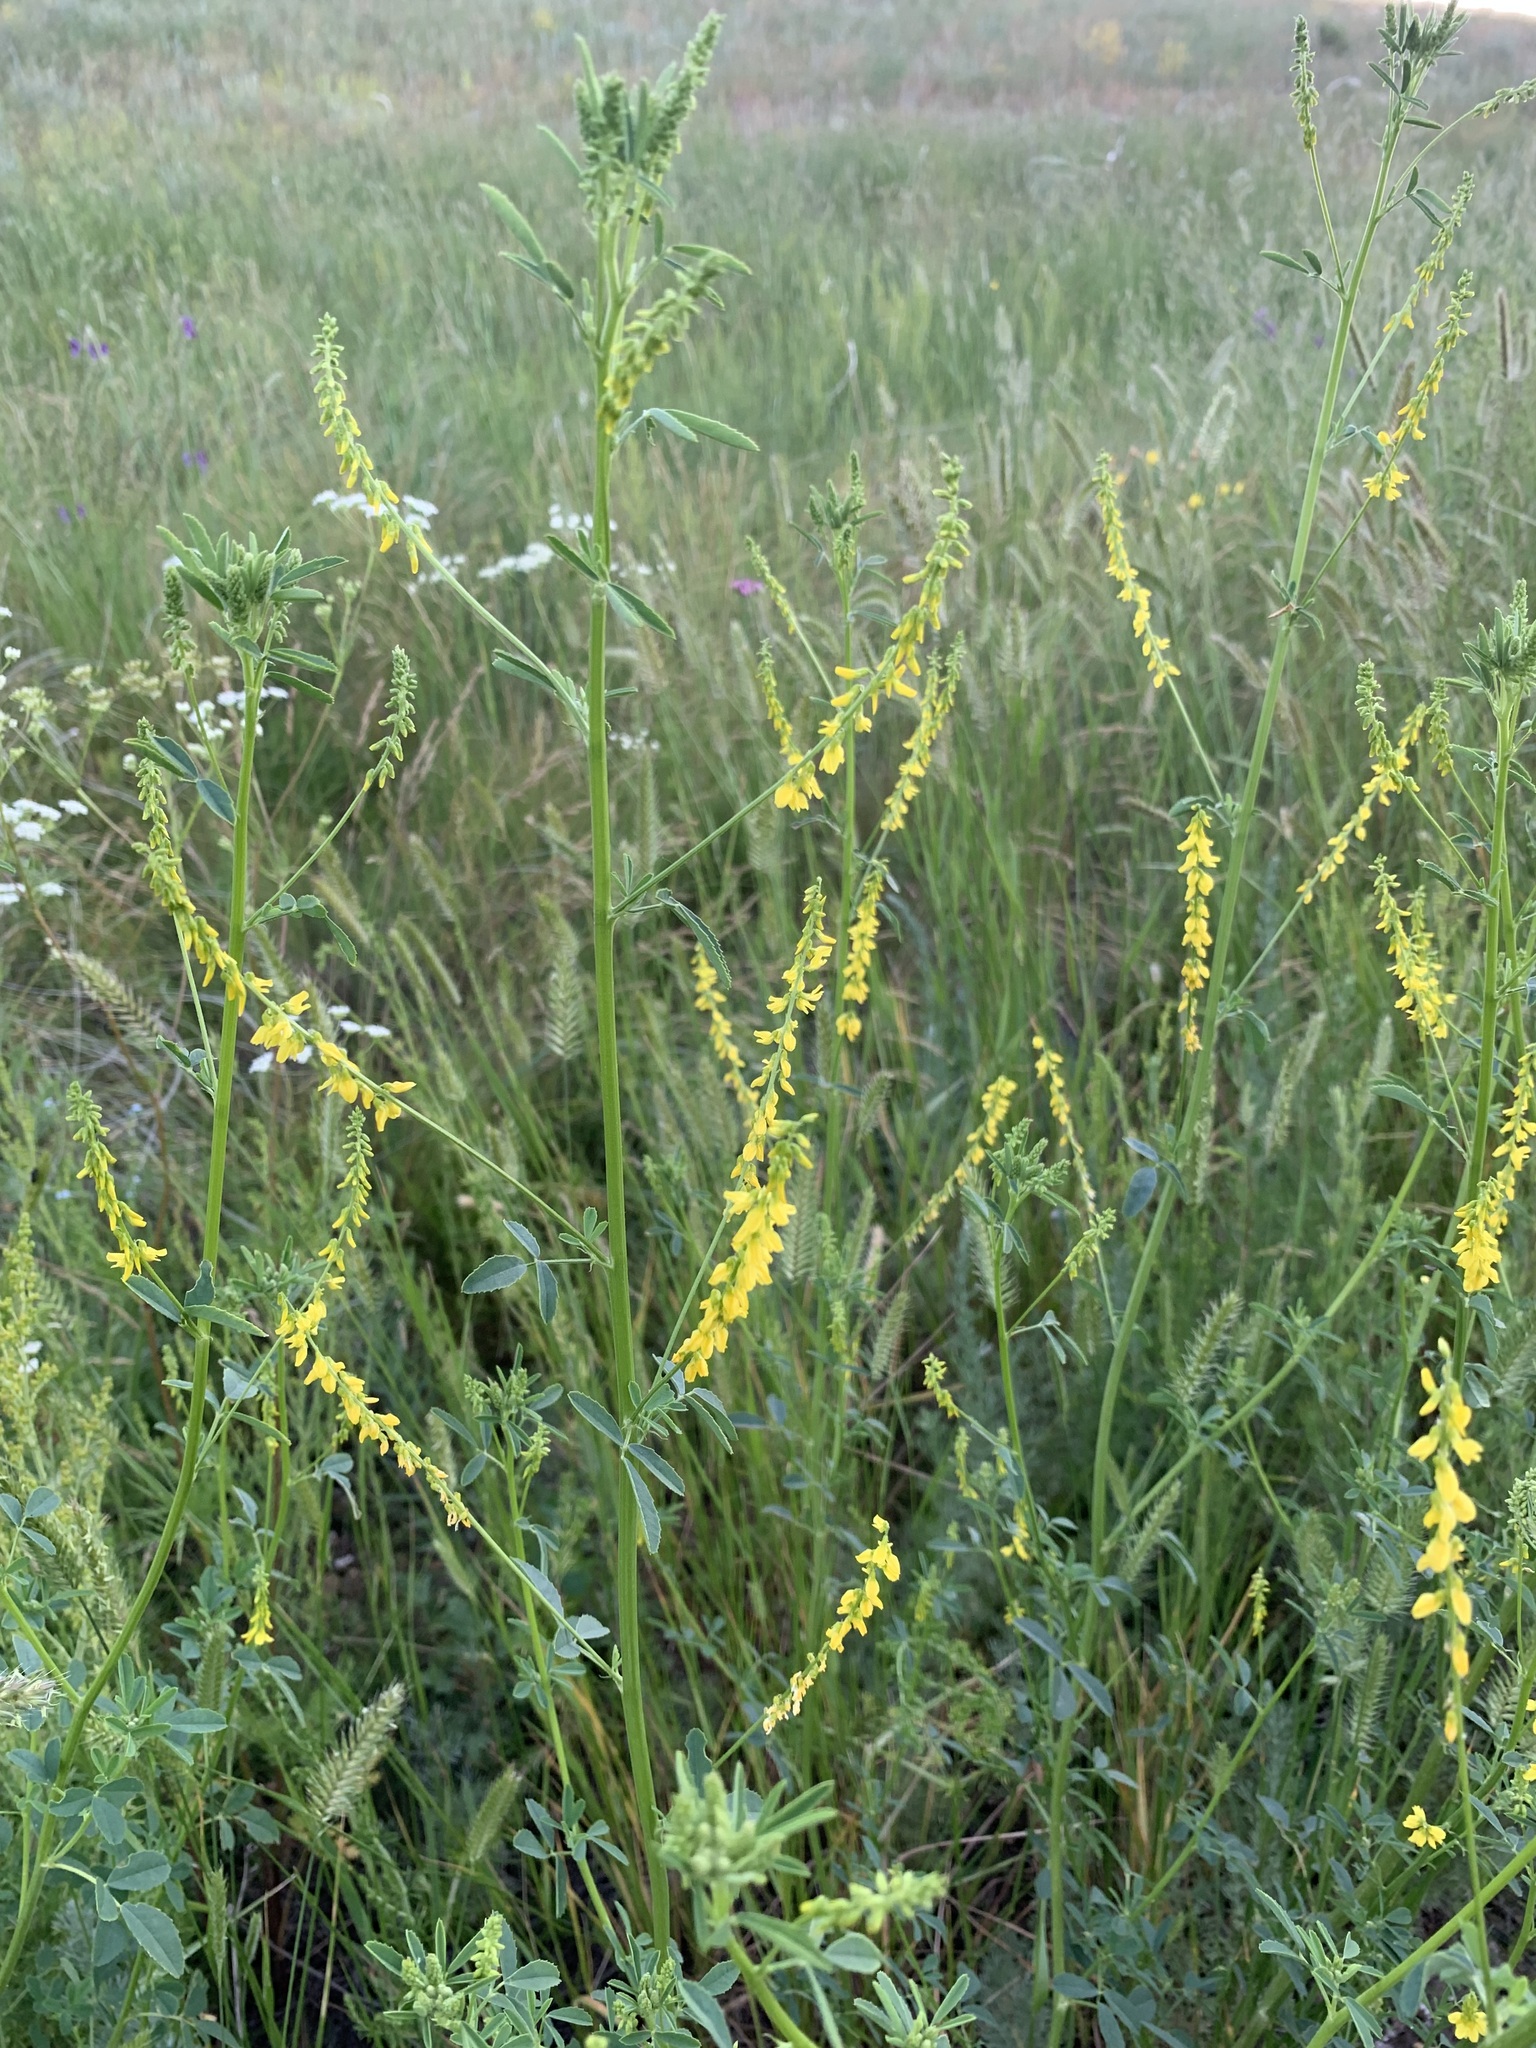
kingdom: Plantae
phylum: Tracheophyta
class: Magnoliopsida
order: Fabales
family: Fabaceae
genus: Melilotus
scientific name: Melilotus officinalis
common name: Sweetclover
